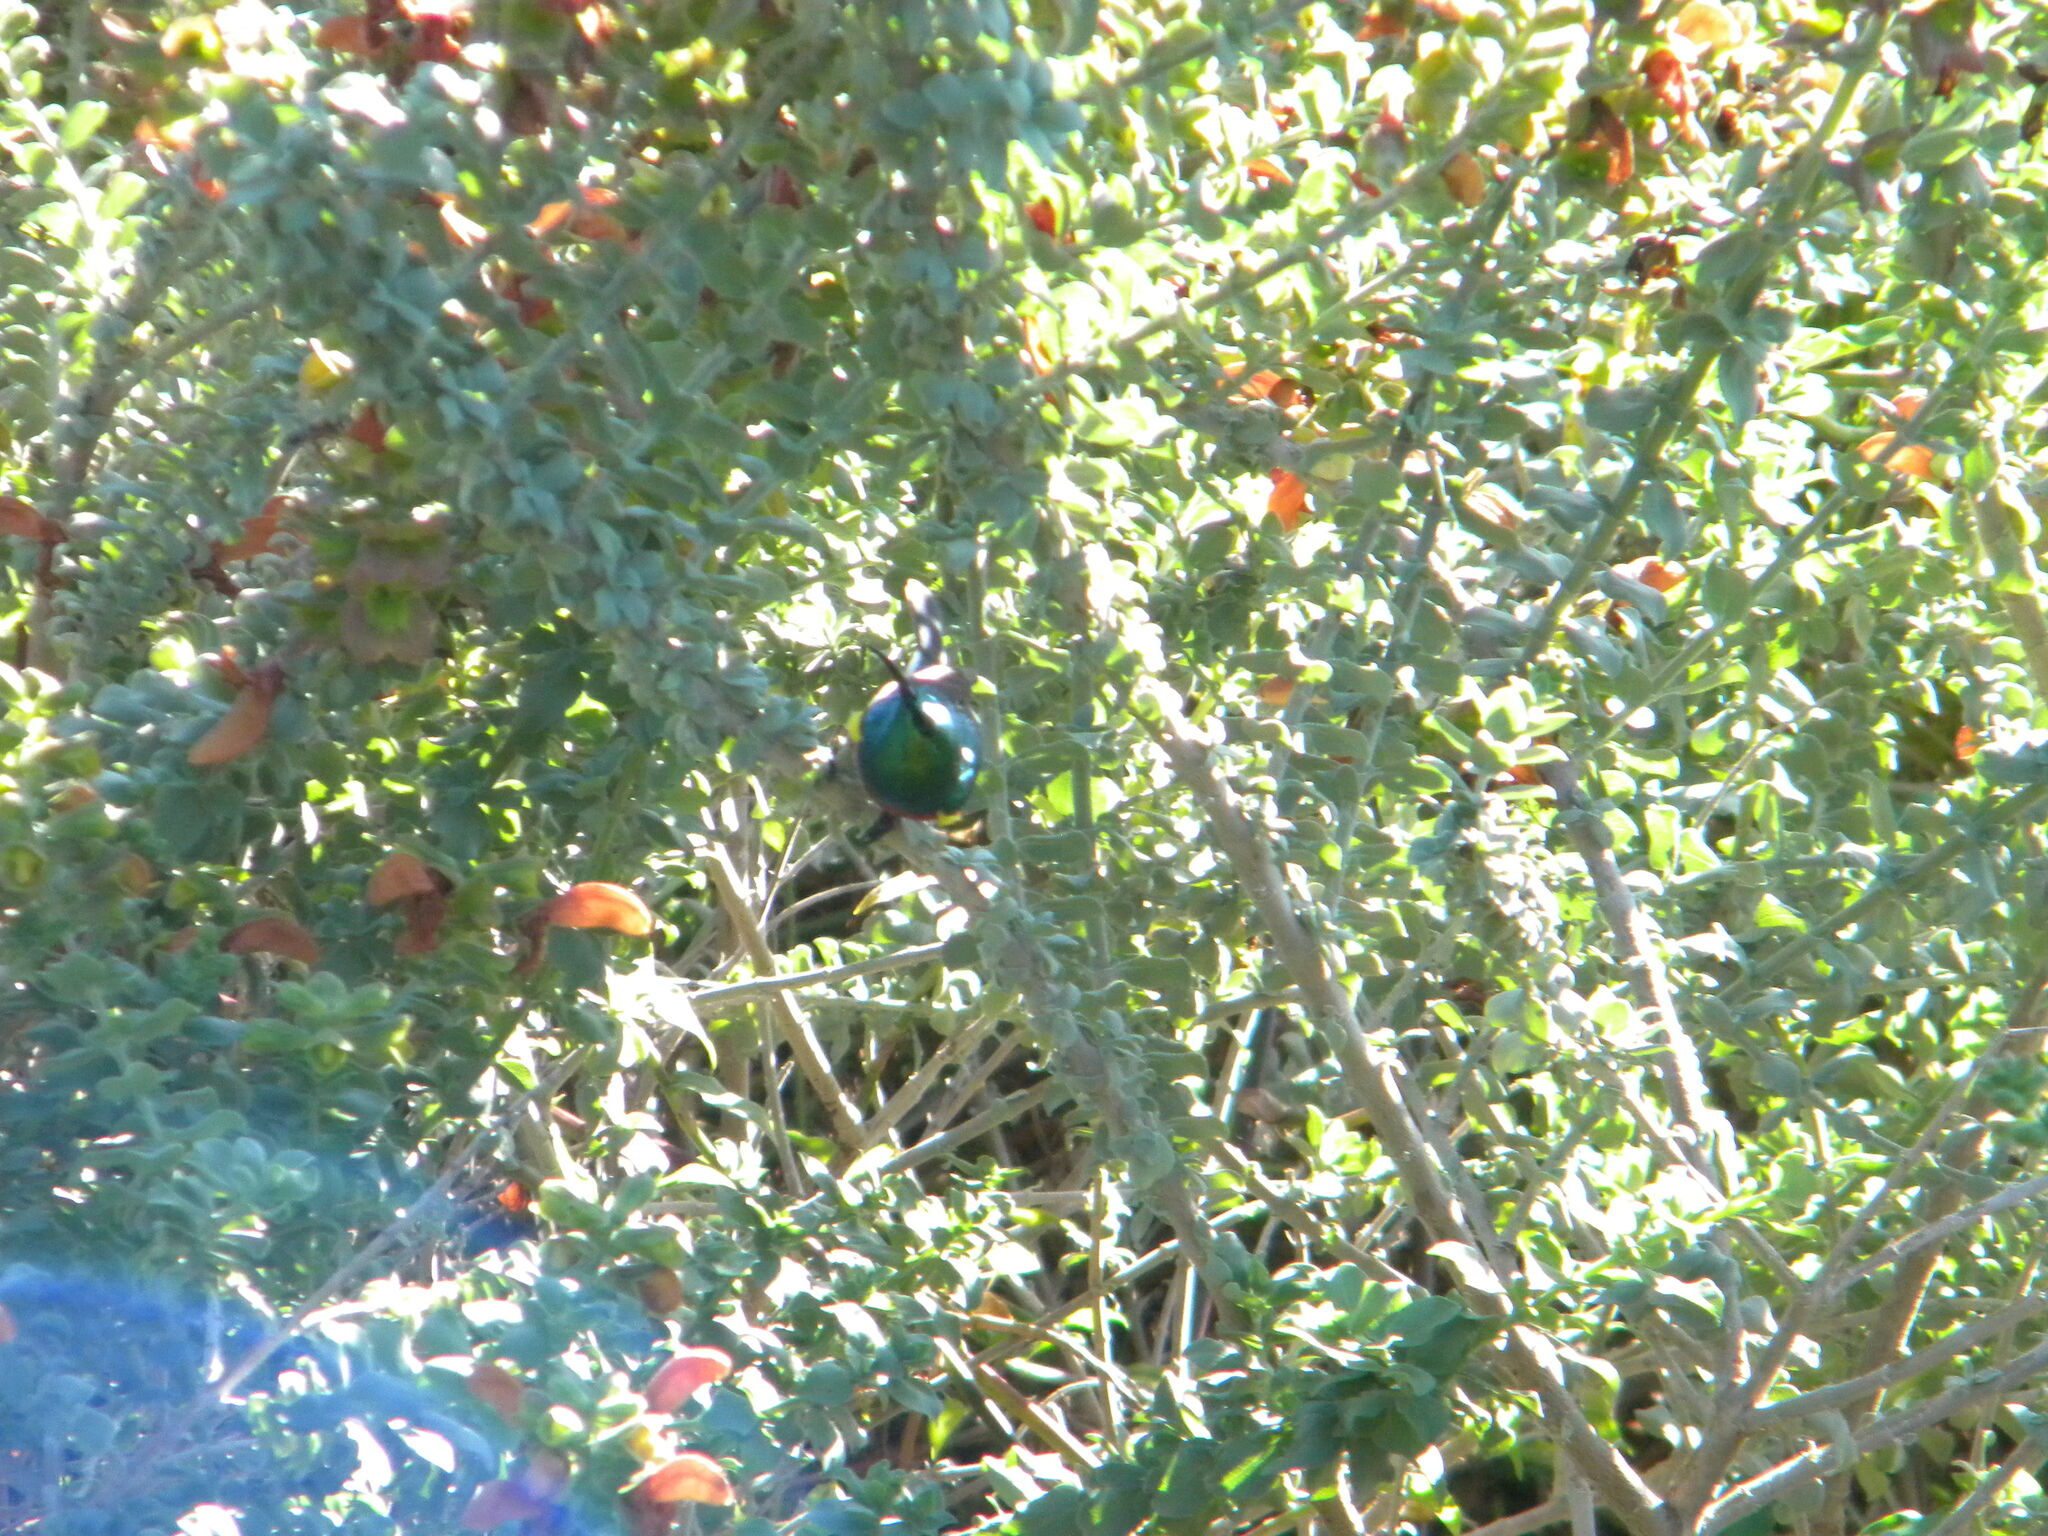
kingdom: Animalia
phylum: Chordata
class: Aves
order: Passeriformes
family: Nectariniidae
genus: Cinnyris
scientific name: Cinnyris chalybeus
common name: Southern double-collared sunbird
